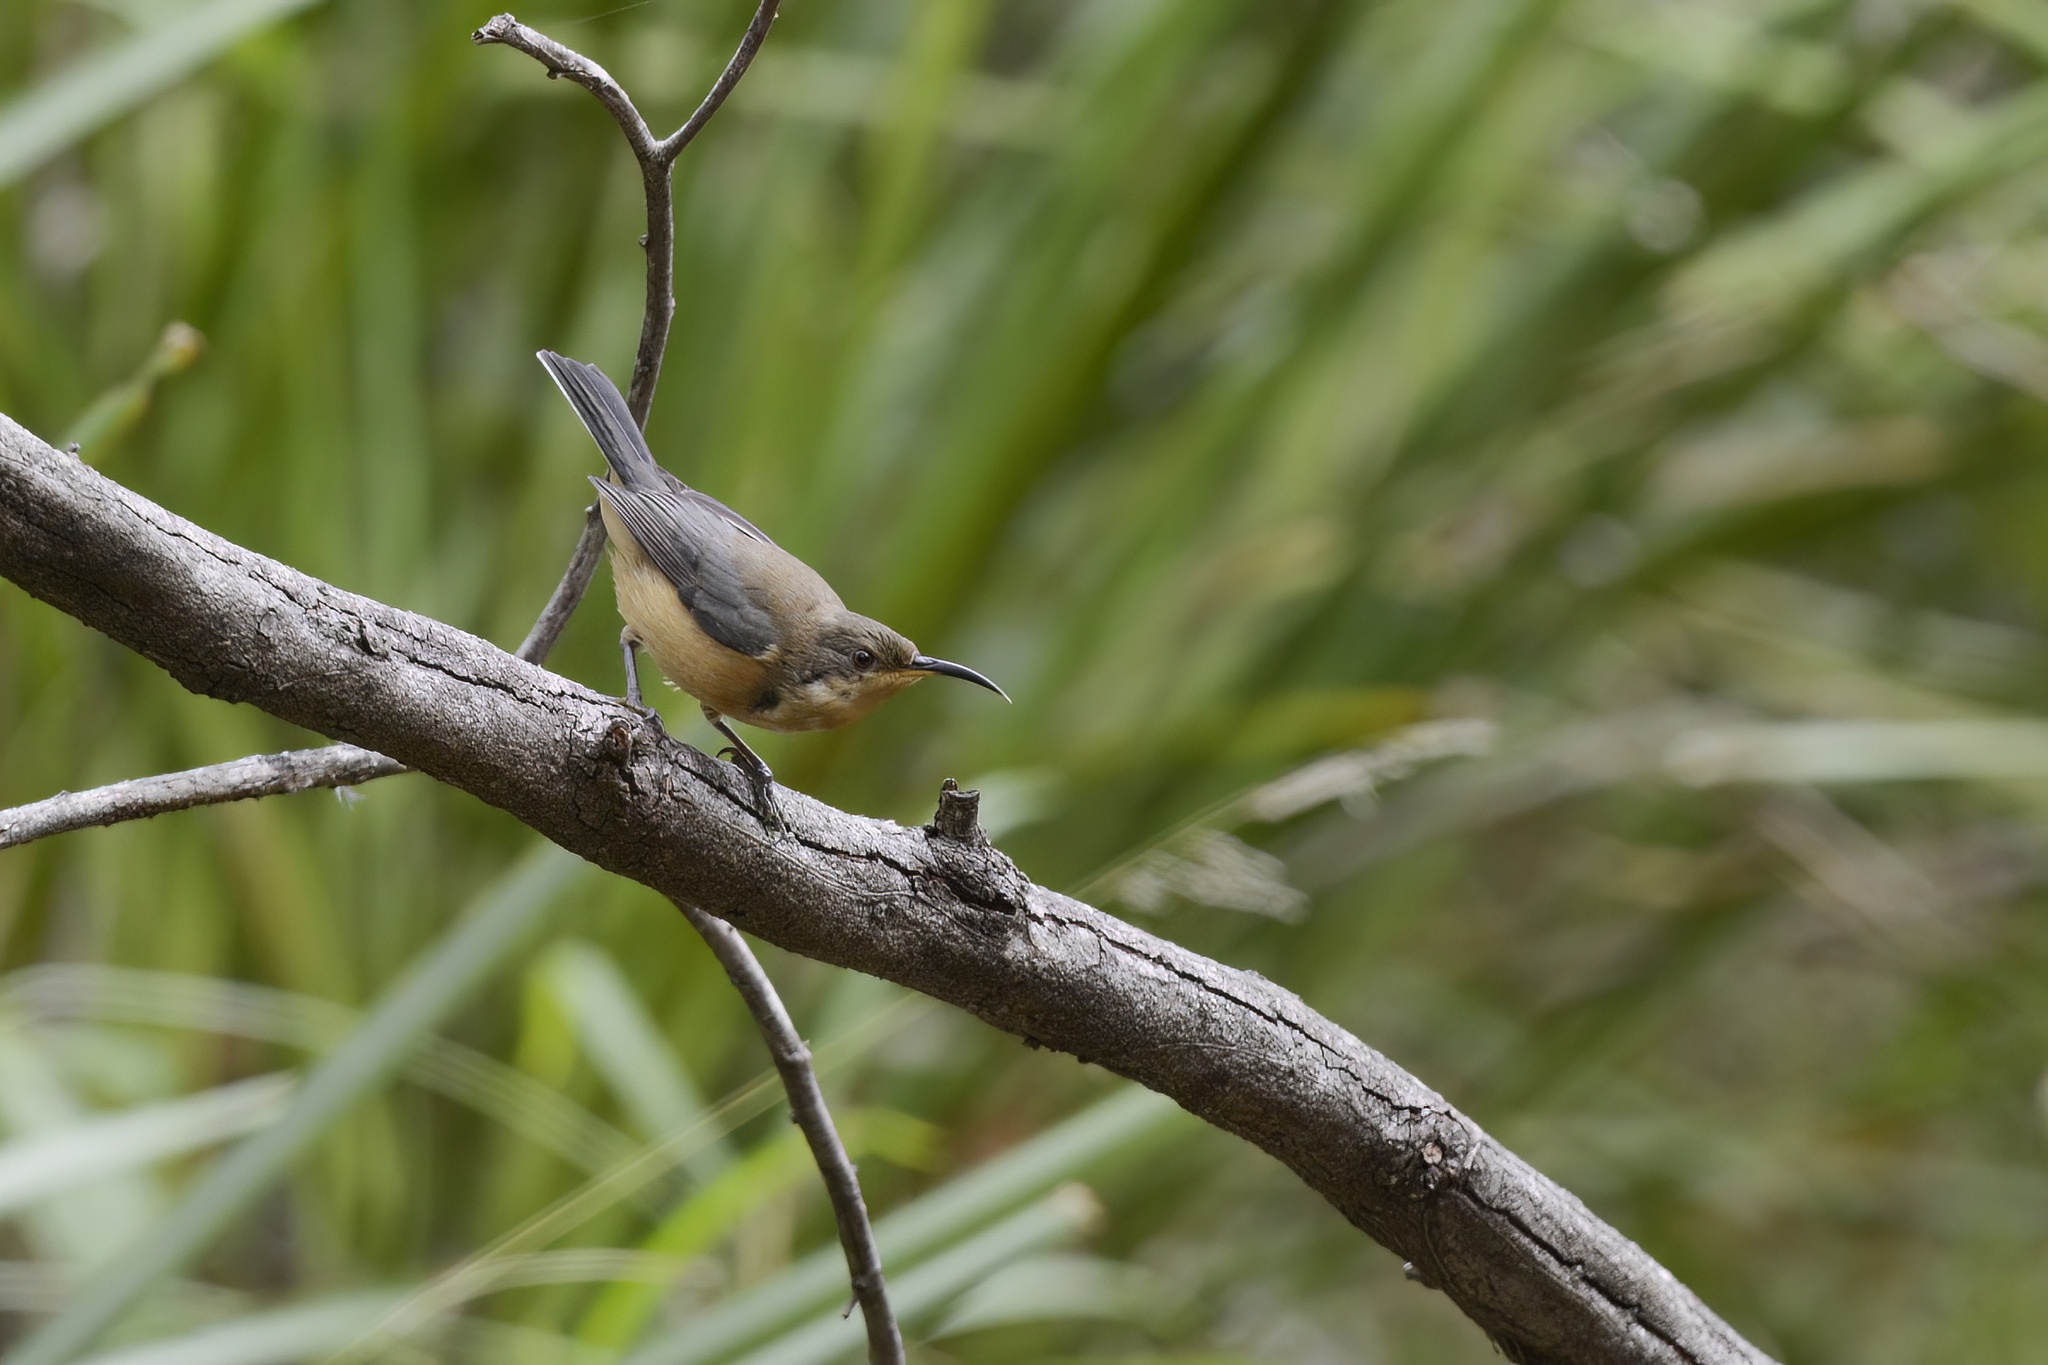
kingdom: Animalia
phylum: Chordata
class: Aves
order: Passeriformes
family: Meliphagidae
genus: Acanthorhynchus
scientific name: Acanthorhynchus tenuirostris
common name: Eastern spinebill
